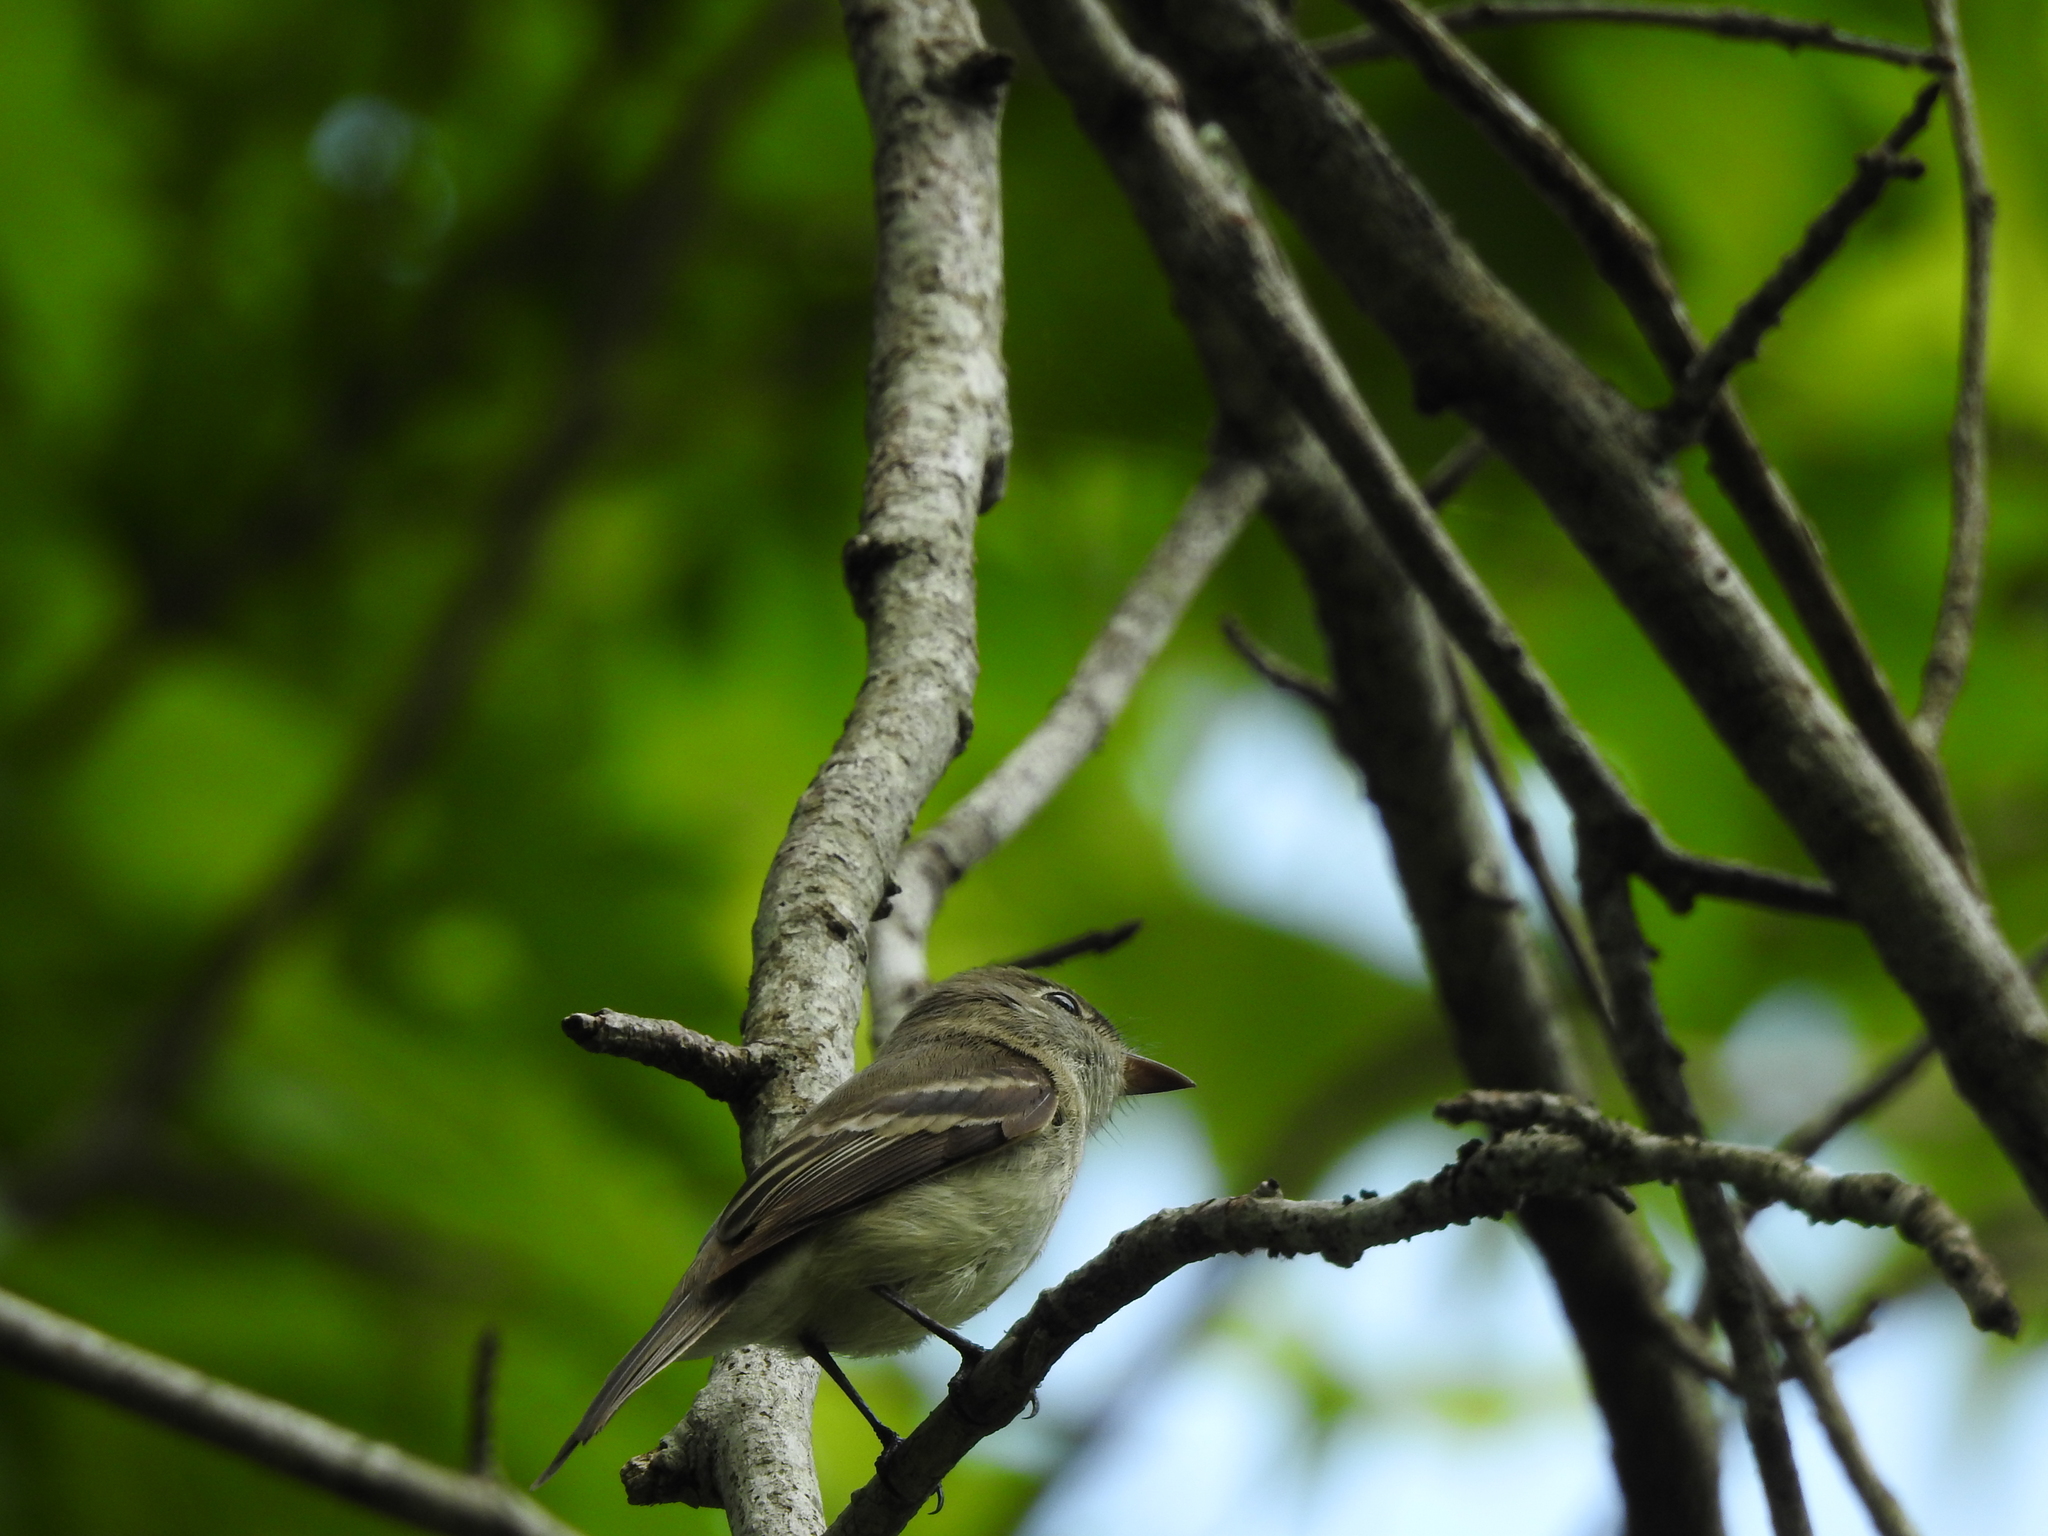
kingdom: Animalia
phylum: Chordata
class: Aves
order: Passeriformes
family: Tyrannidae
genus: Empidonax
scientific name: Empidonax minimus
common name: Least flycatcher
